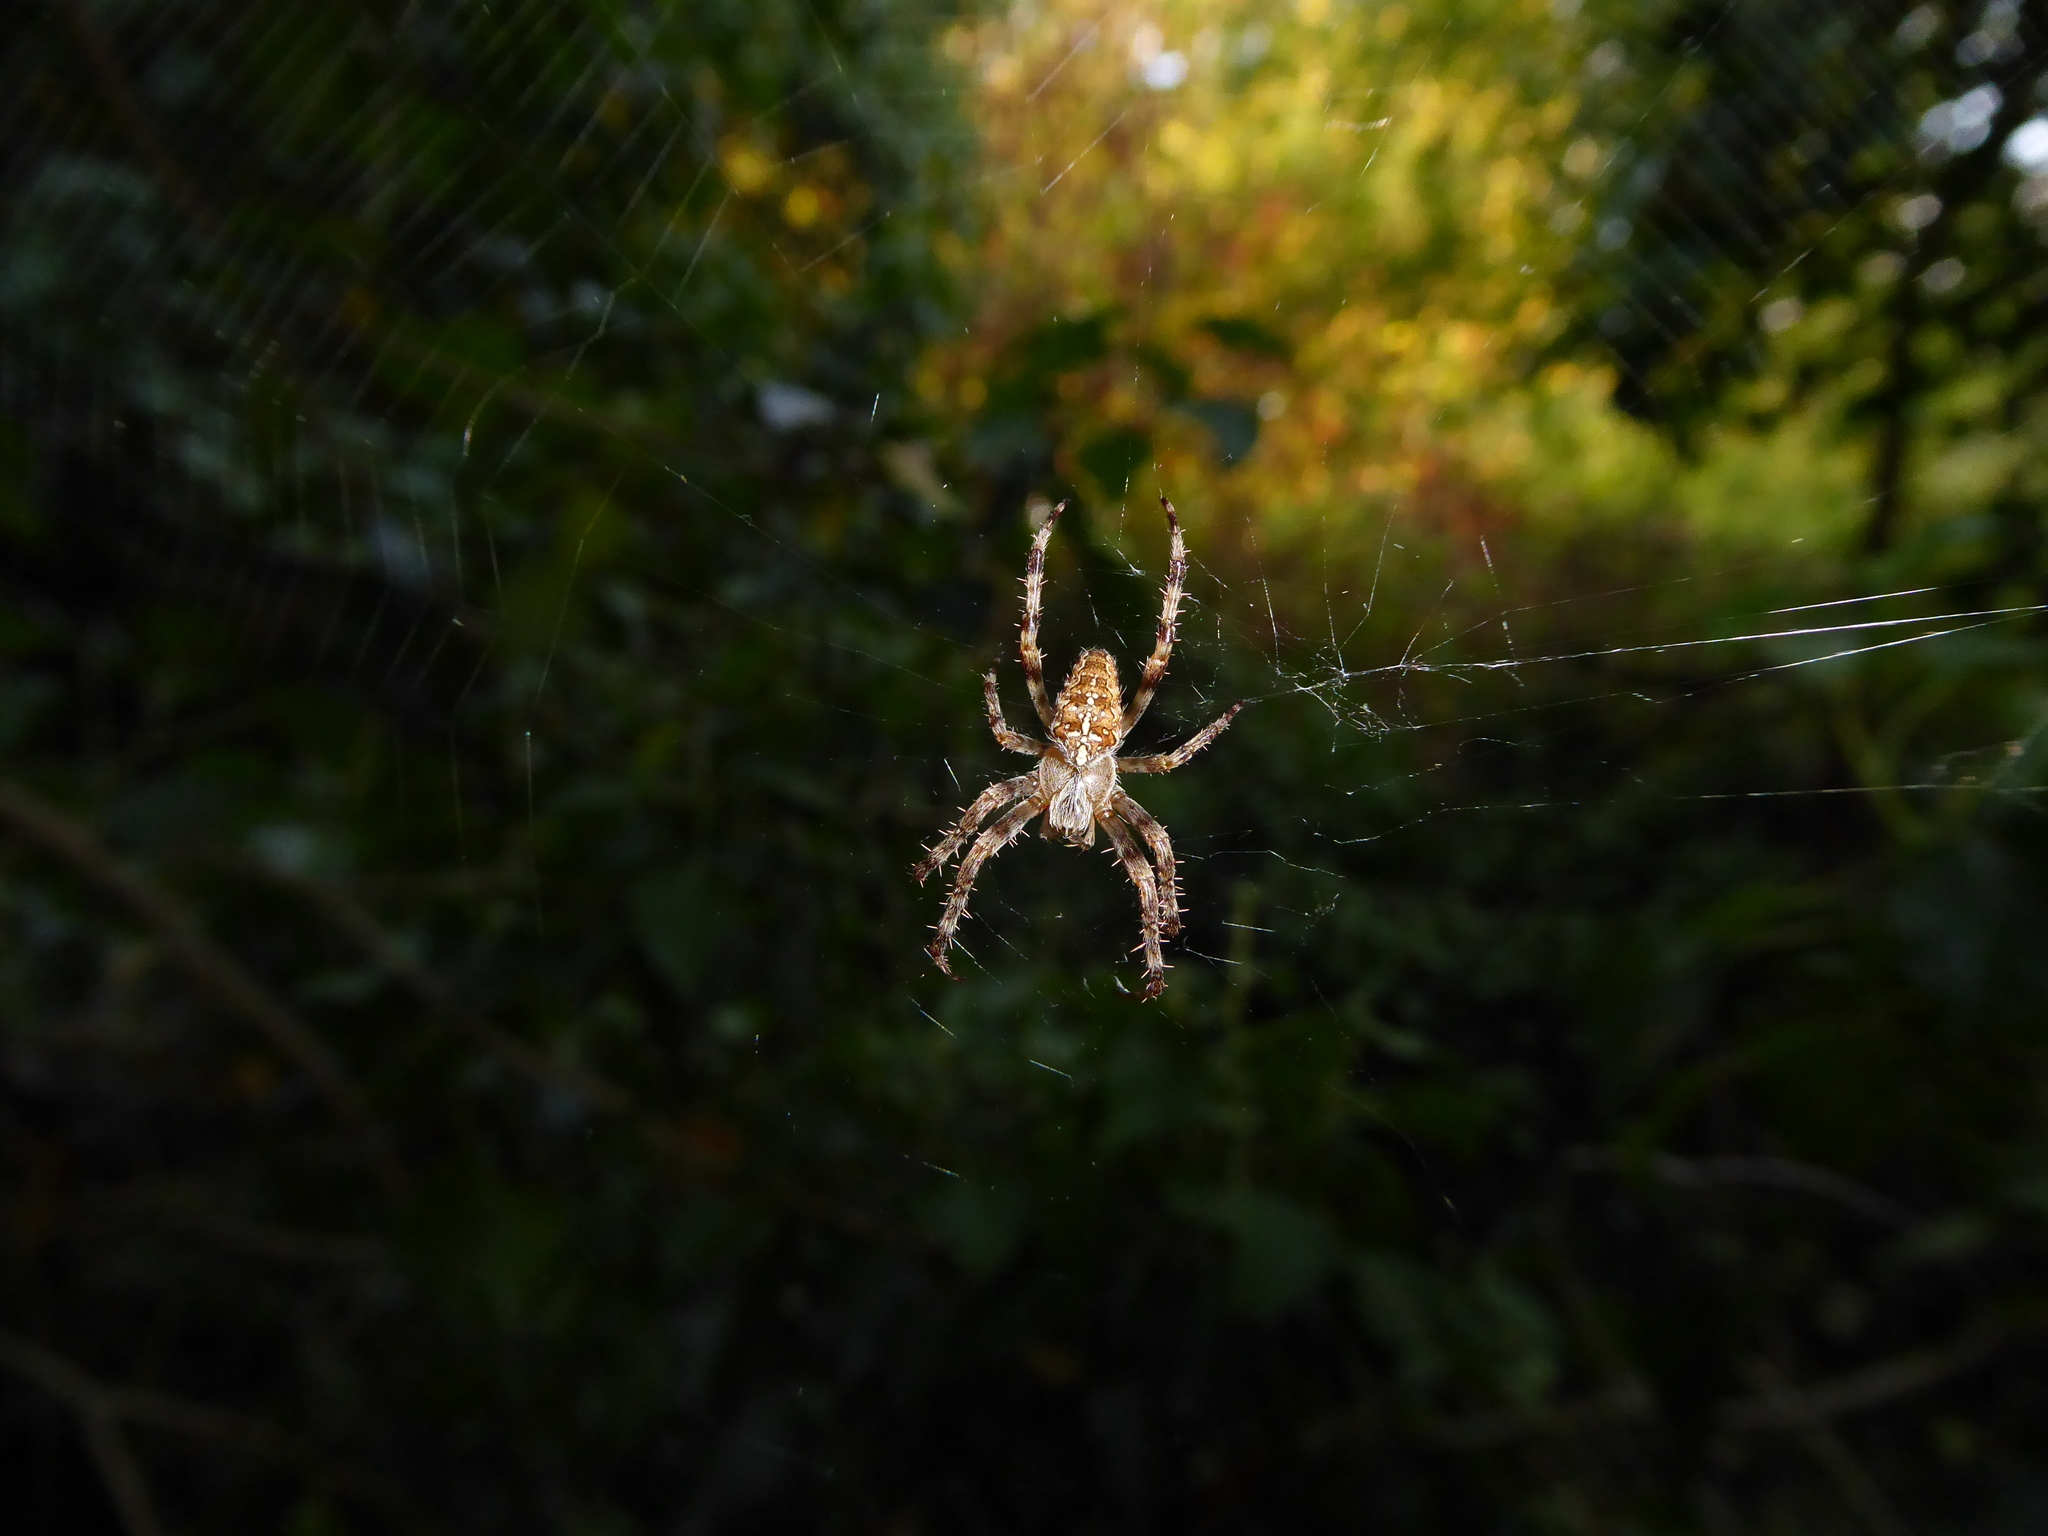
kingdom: Animalia
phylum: Arthropoda
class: Arachnida
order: Araneae
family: Araneidae
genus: Araneus
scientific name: Araneus diadematus
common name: Cross orbweaver
